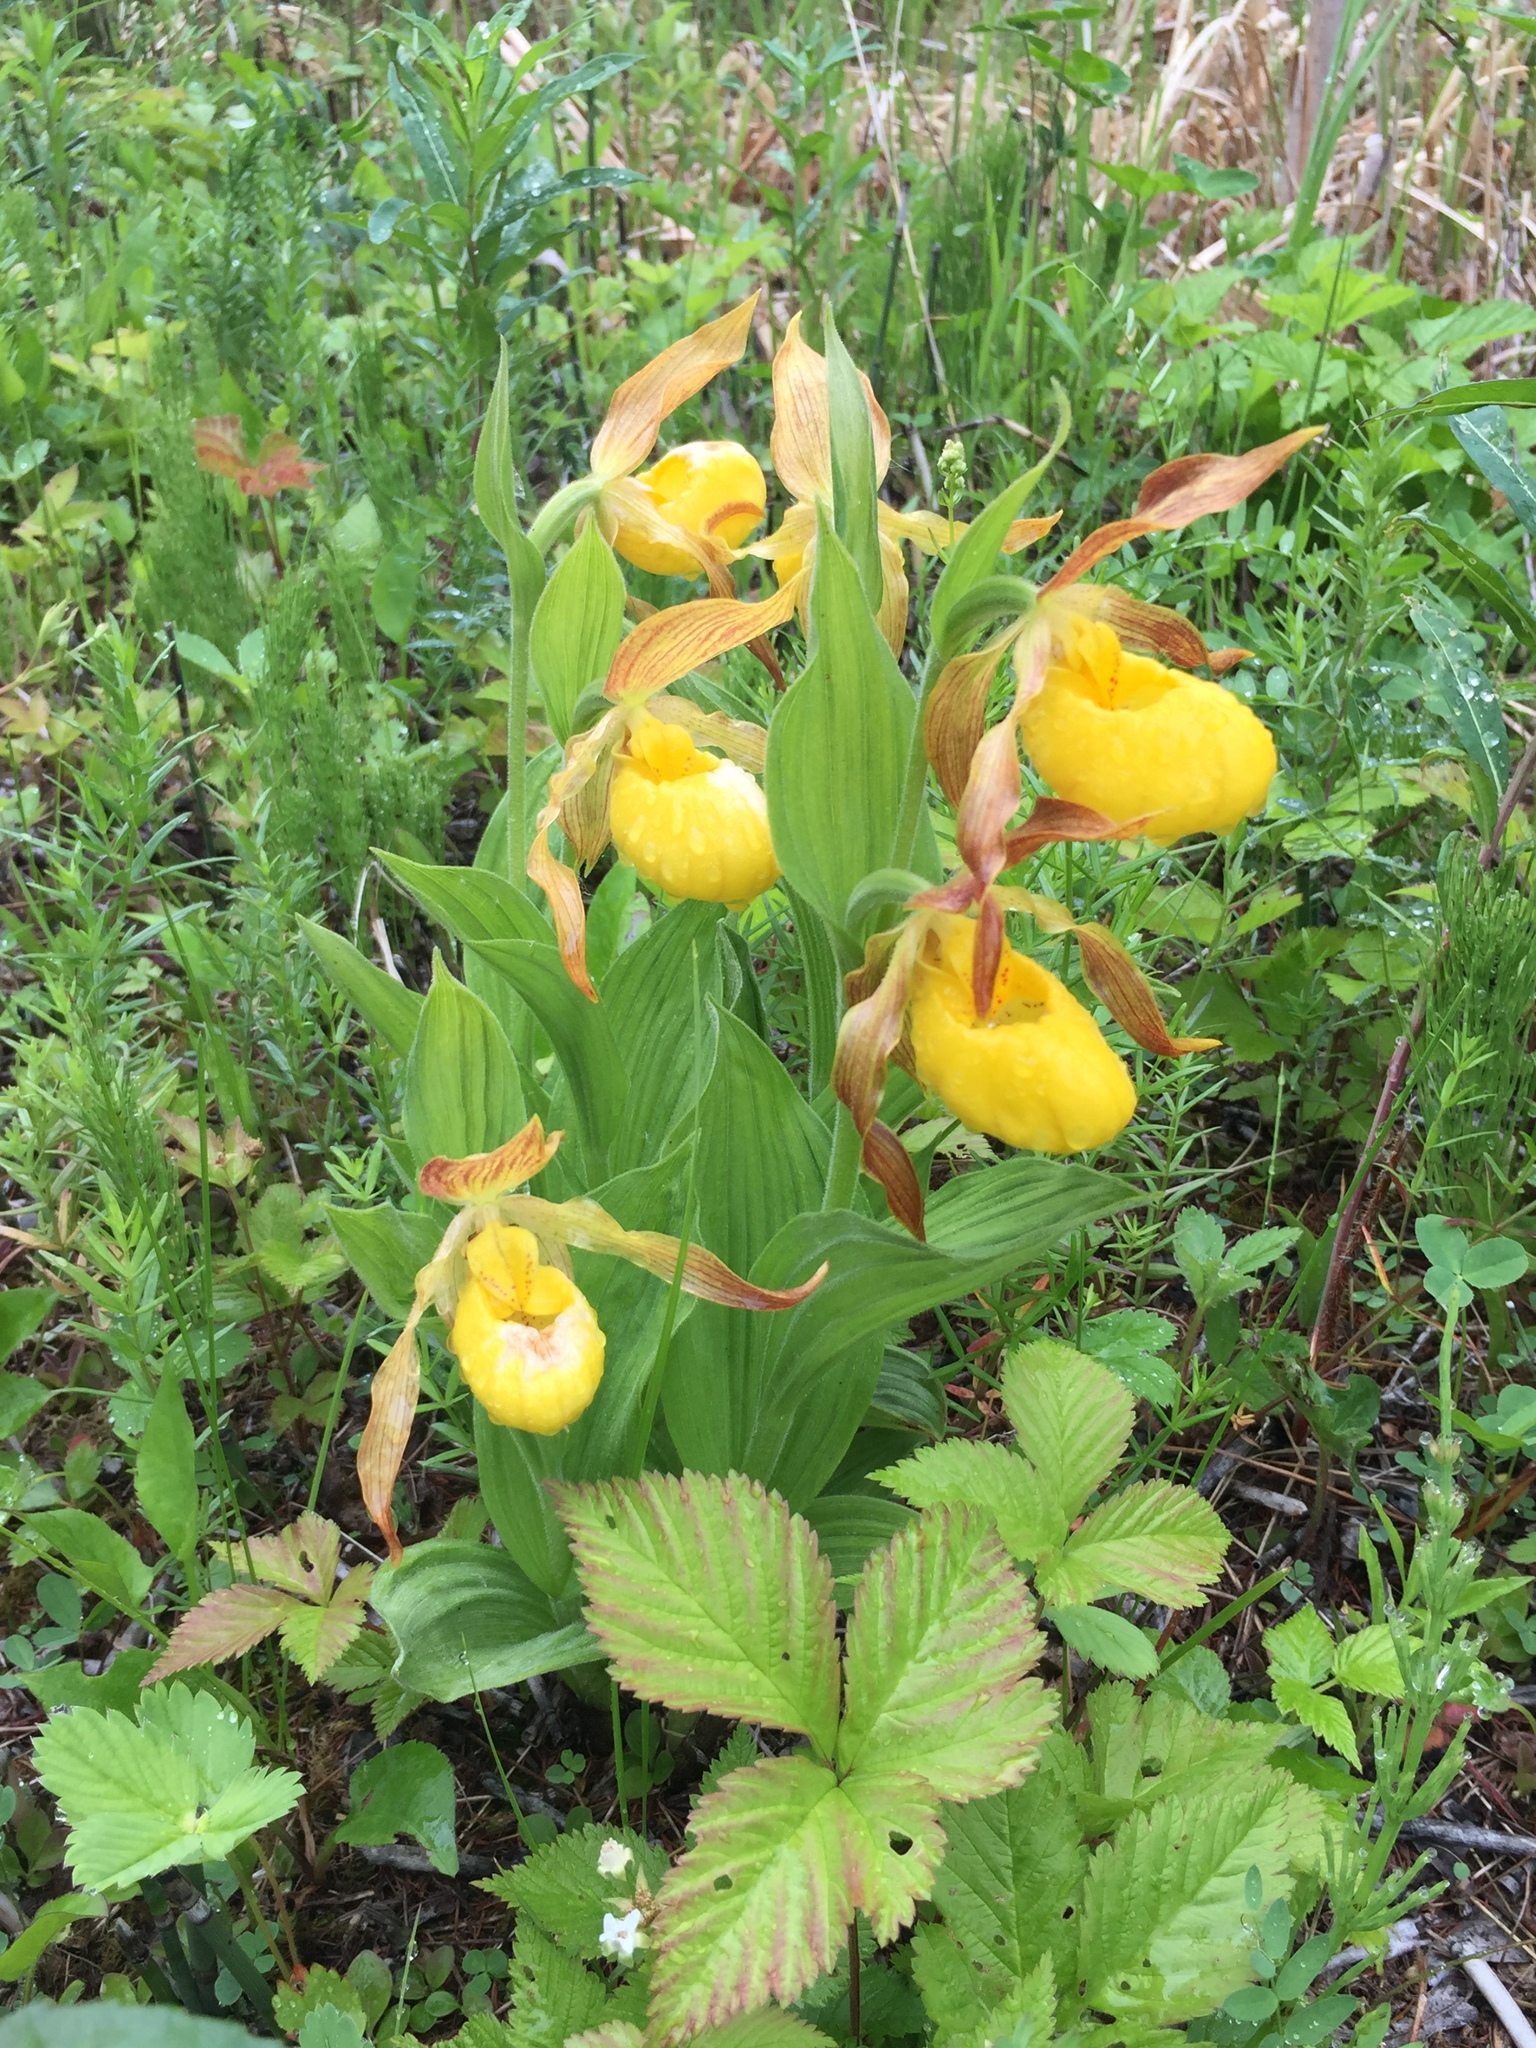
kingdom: Plantae
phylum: Tracheophyta
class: Liliopsida
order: Asparagales
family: Orchidaceae
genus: Cypripedium
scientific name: Cypripedium parviflorum
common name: American yellow lady's-slipper
